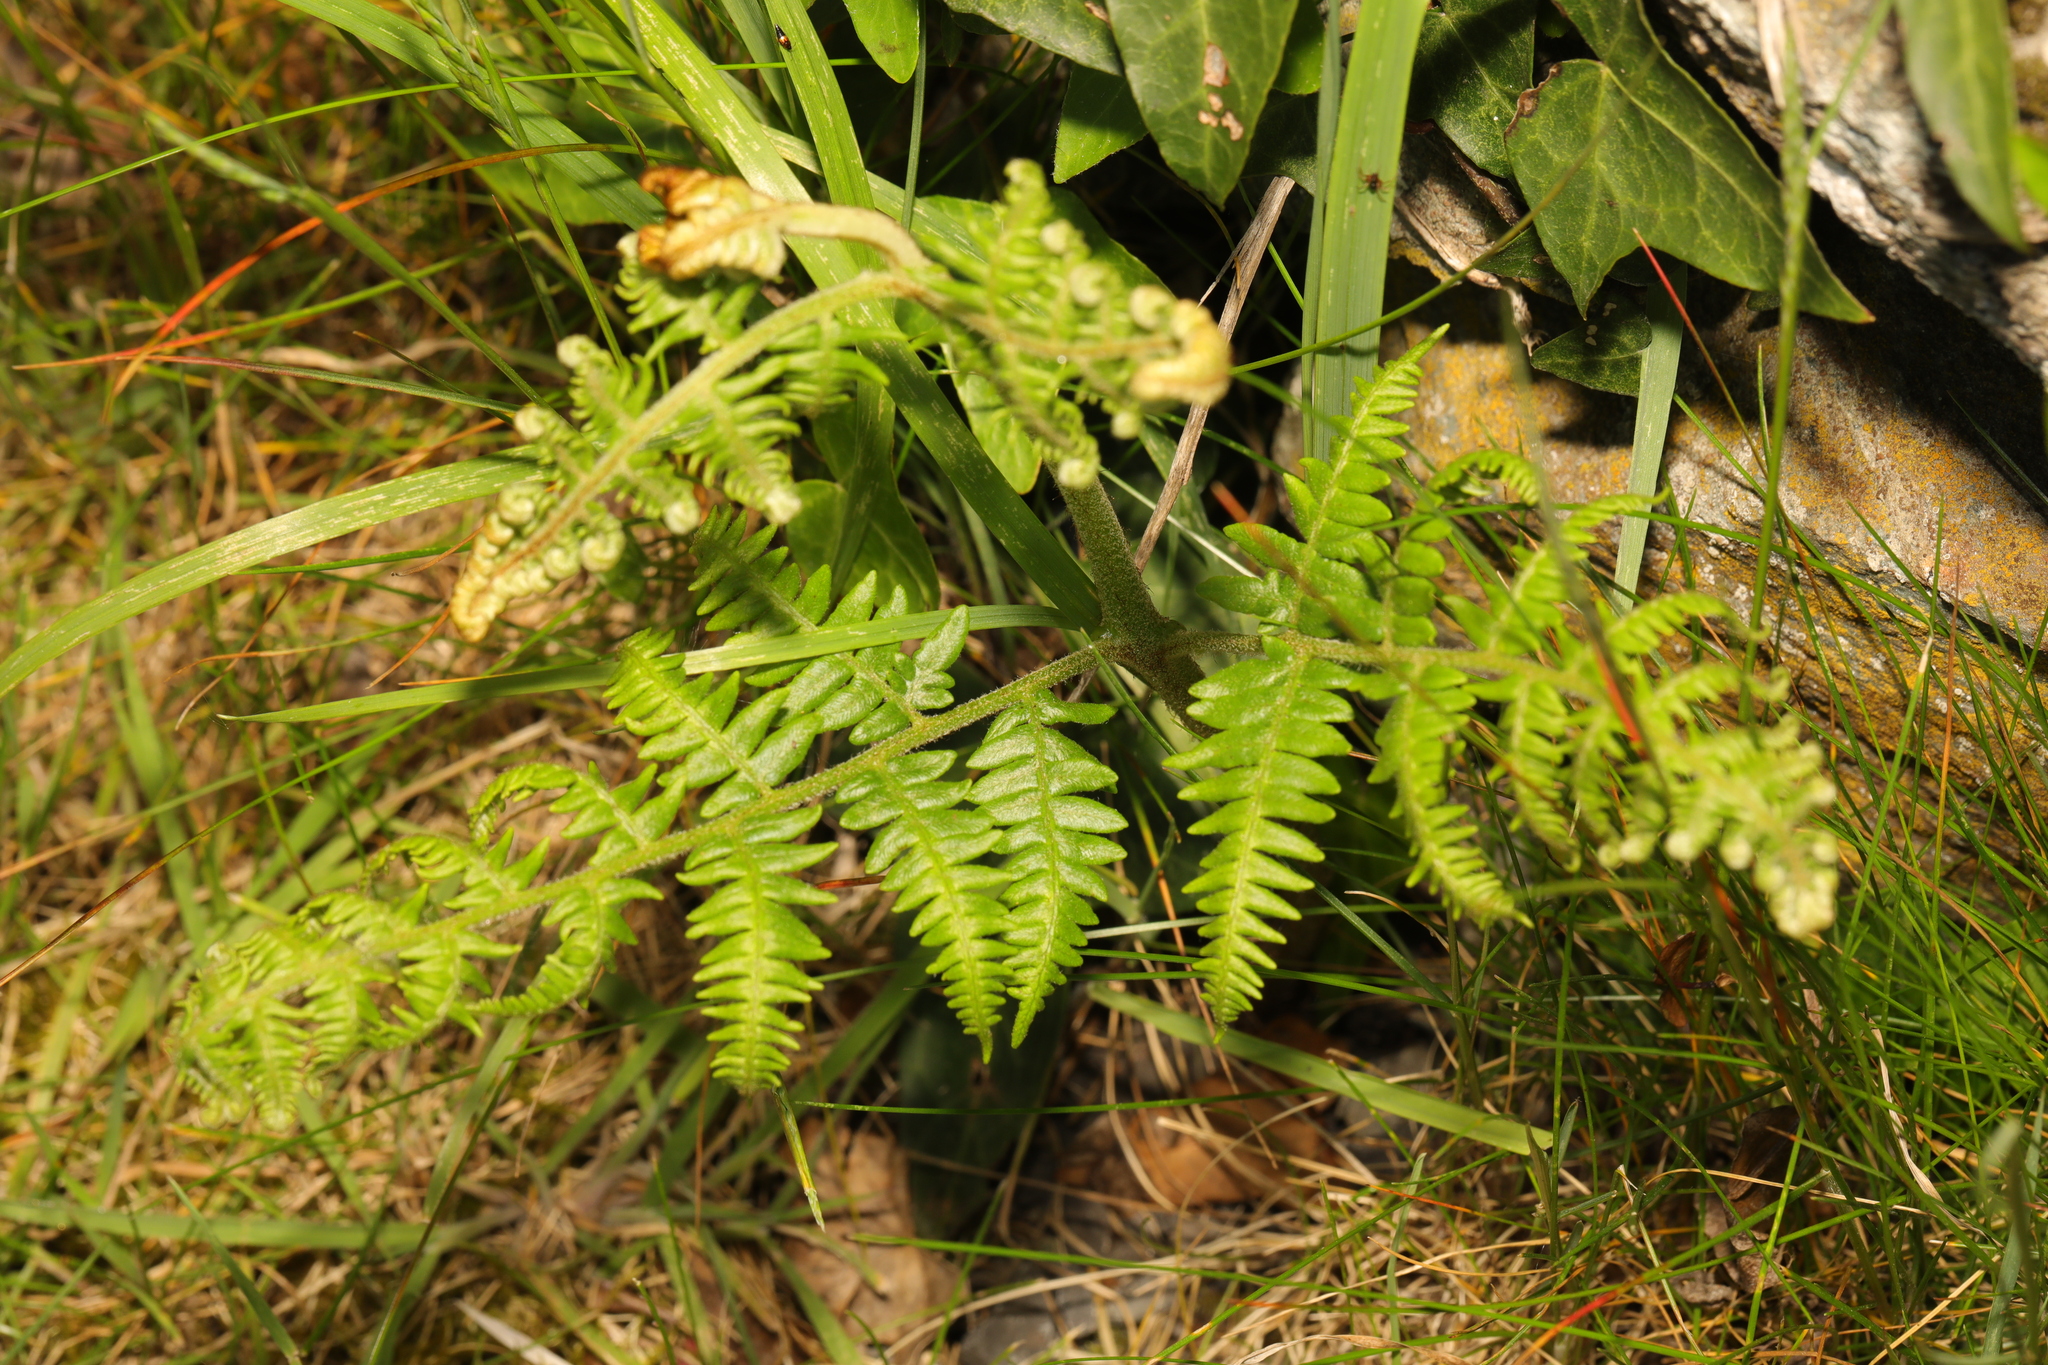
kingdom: Plantae
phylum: Tracheophyta
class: Polypodiopsida
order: Polypodiales
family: Dennstaedtiaceae
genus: Pteridium
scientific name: Pteridium aquilinum
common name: Bracken
